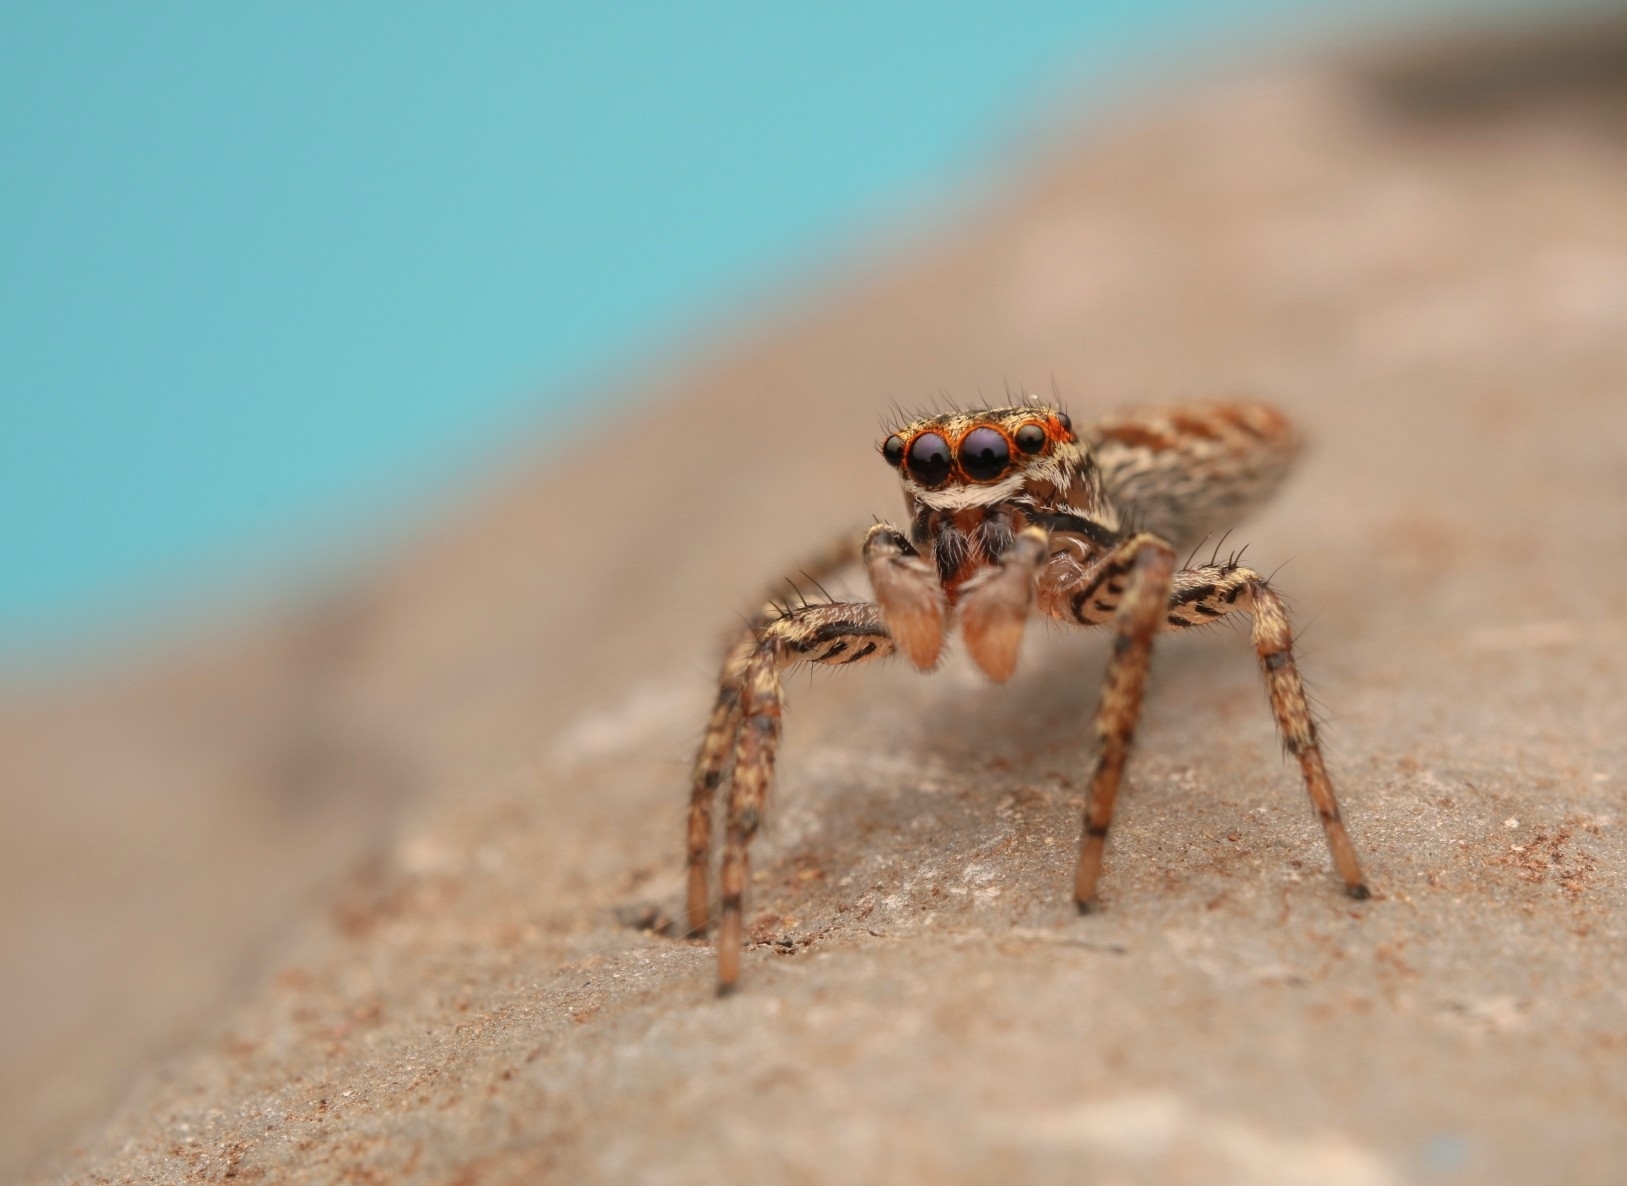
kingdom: Animalia
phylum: Arthropoda
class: Arachnida
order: Araneae
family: Salticidae
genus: Maevia
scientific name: Maevia inclemens
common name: Dimorphic jumper
